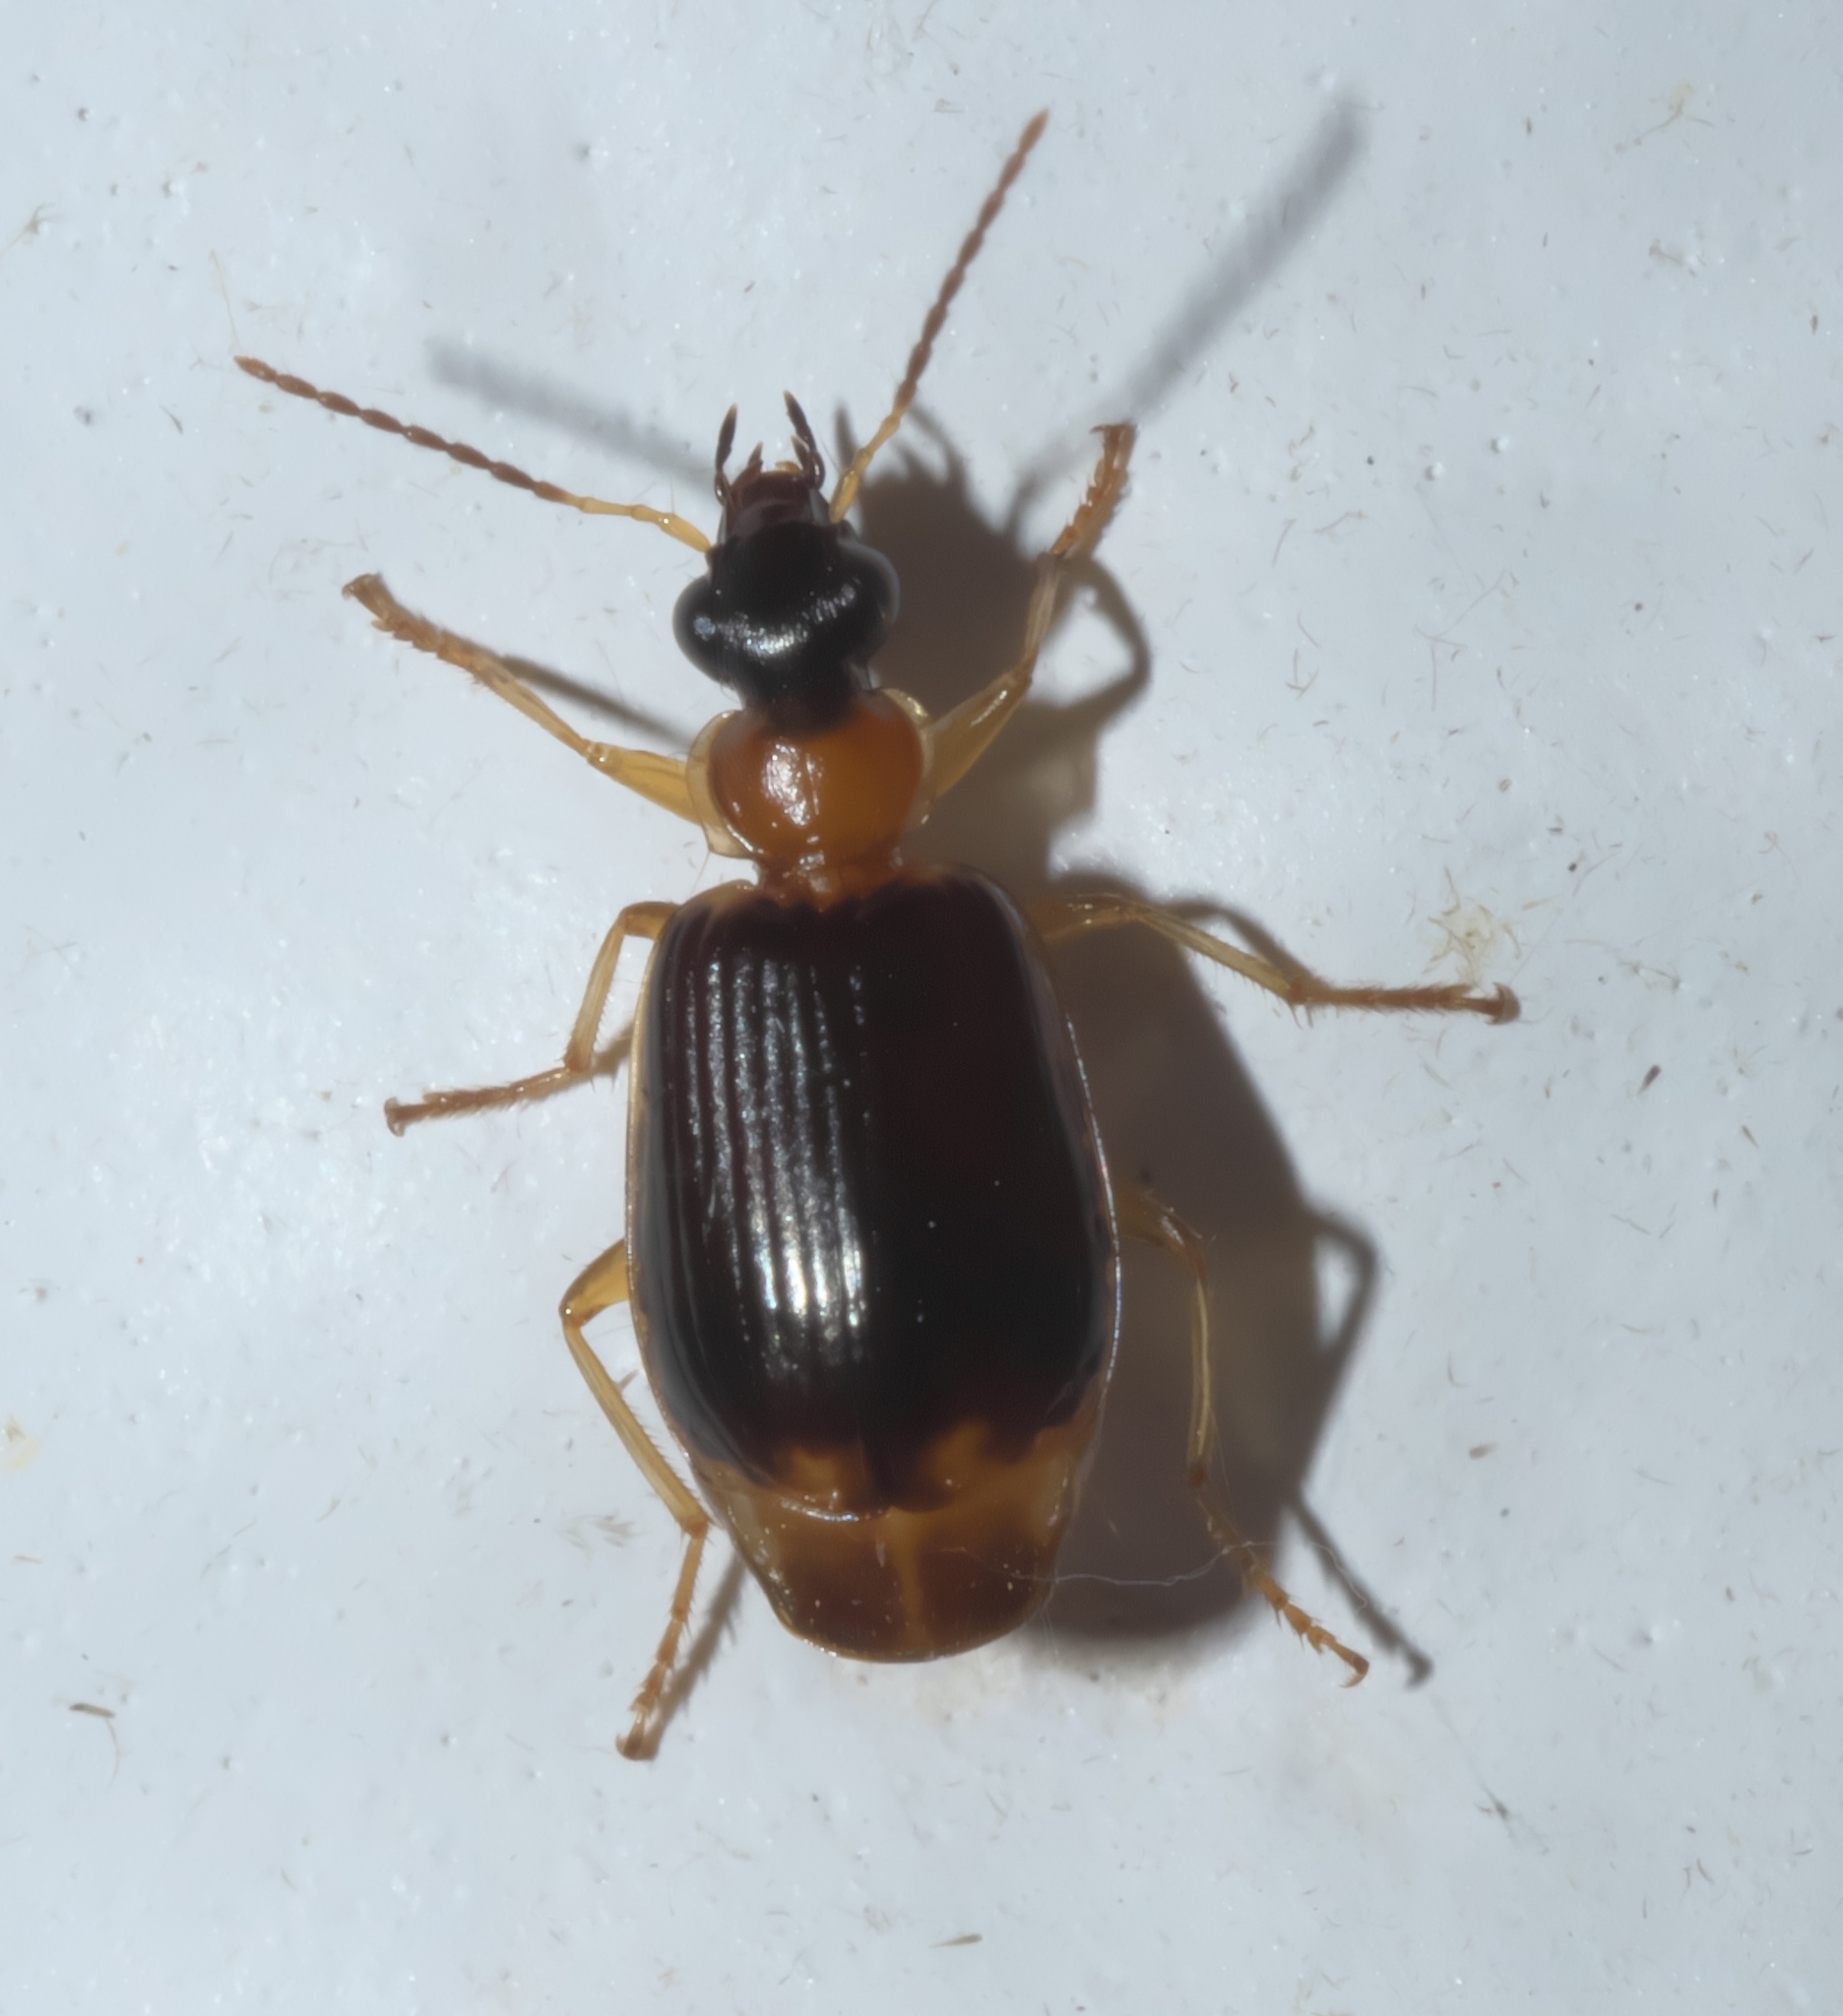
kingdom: Animalia
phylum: Arthropoda
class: Insecta
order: Coleoptera
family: Carabidae
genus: Lebia
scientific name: Lebia analis
